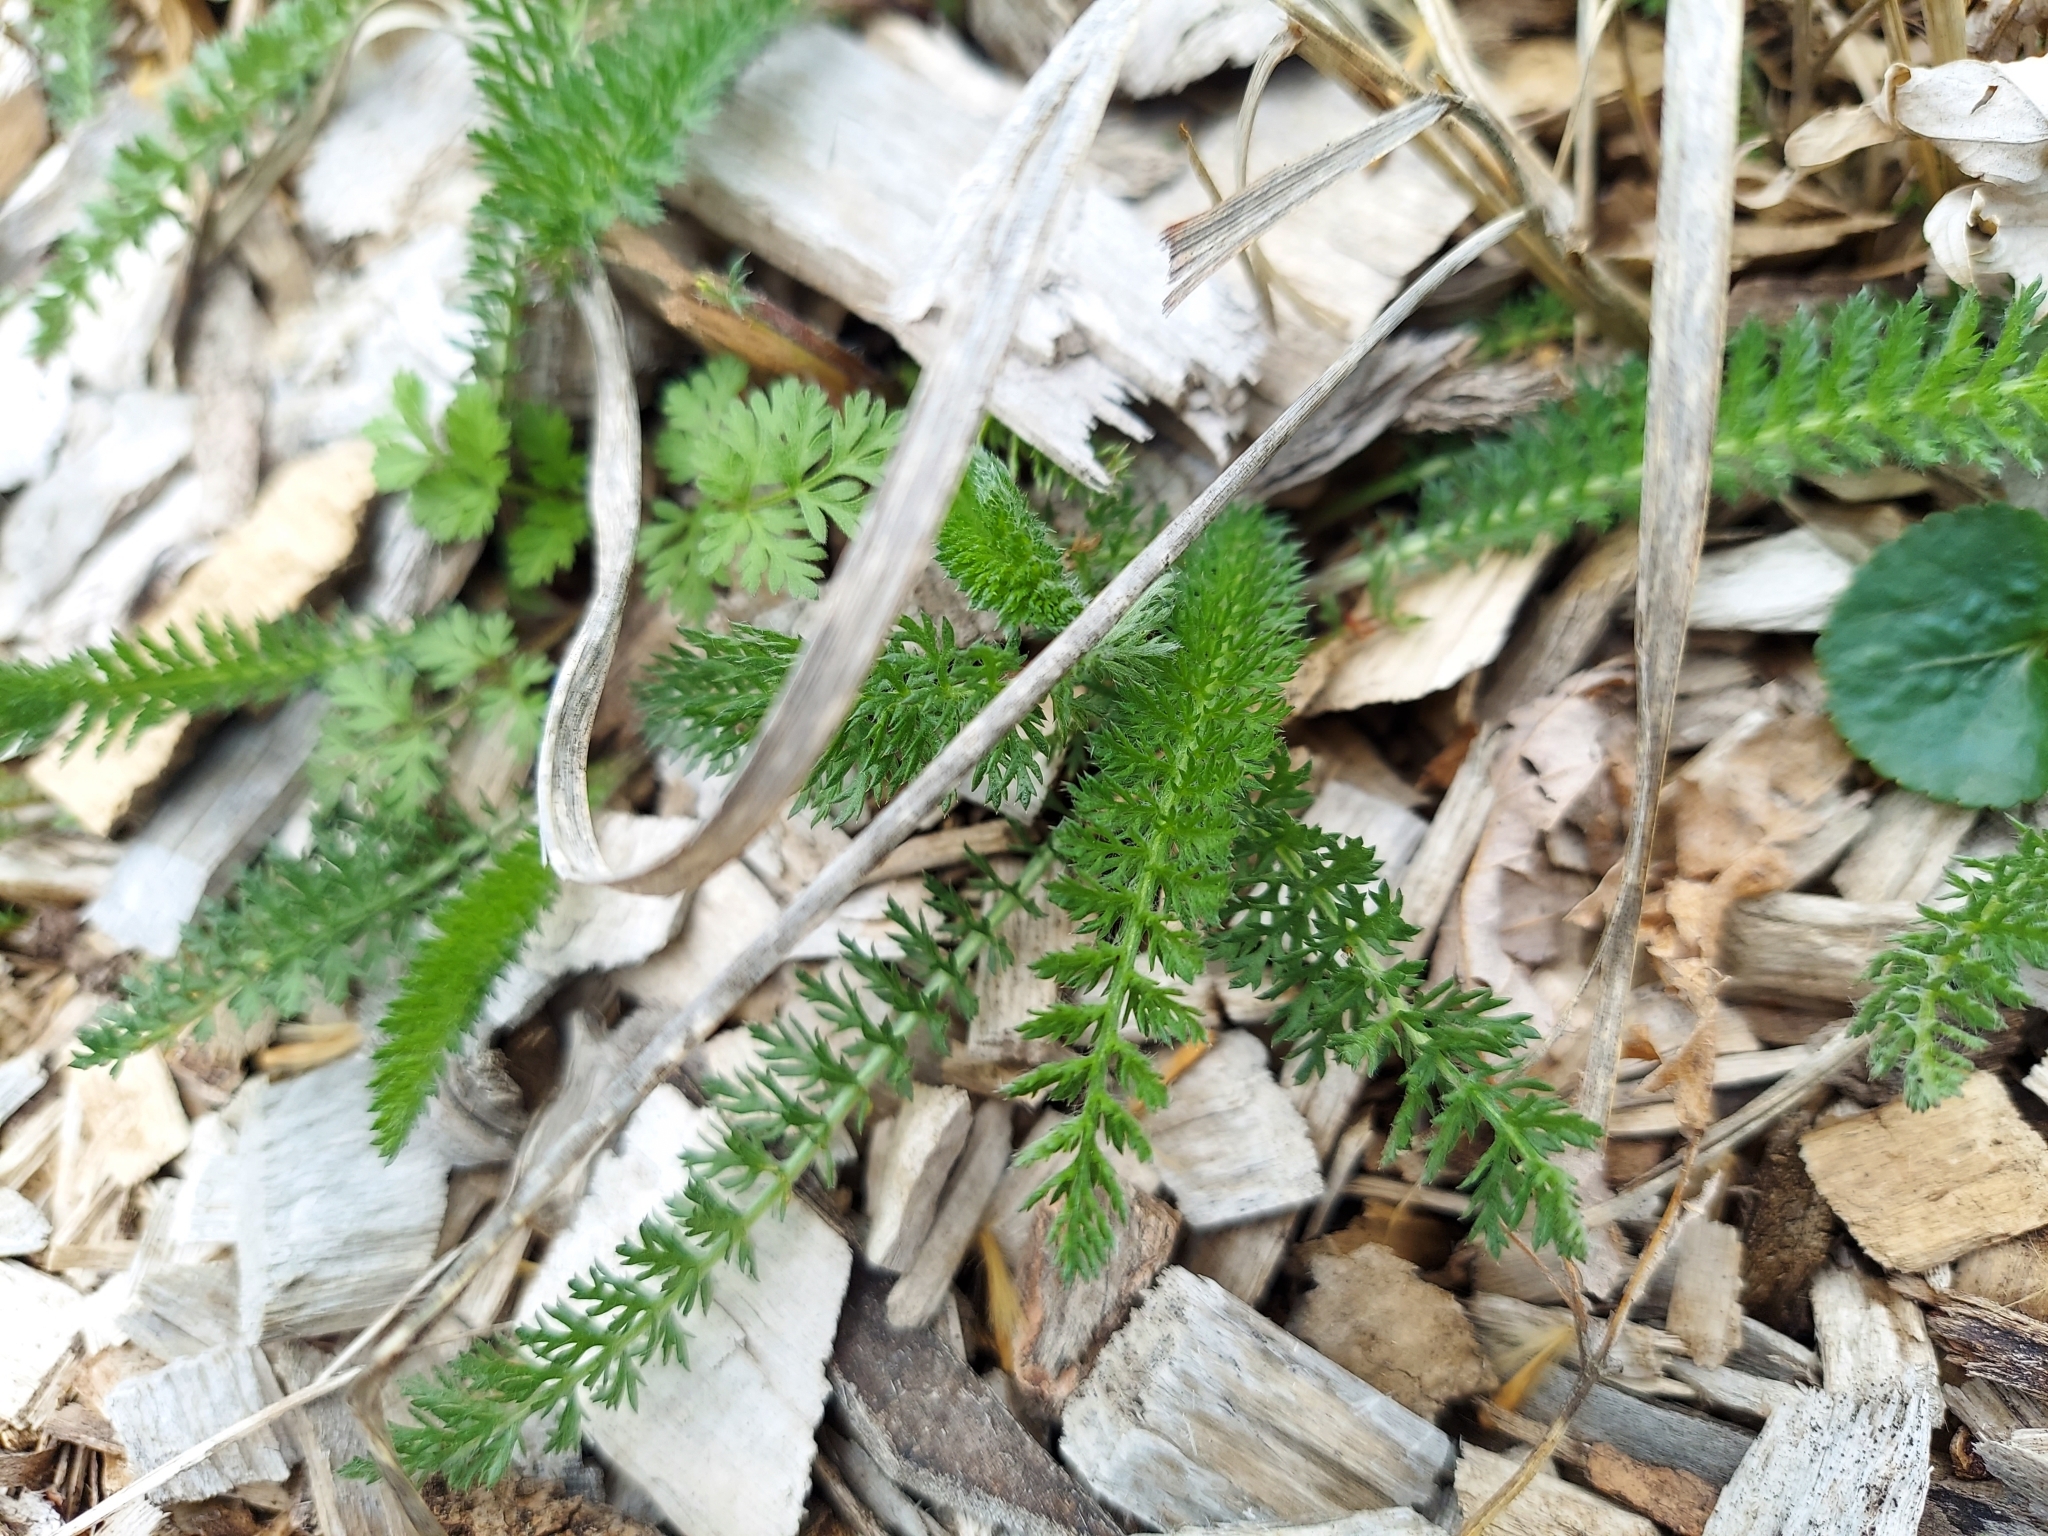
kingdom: Plantae
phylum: Tracheophyta
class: Magnoliopsida
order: Asterales
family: Asteraceae
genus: Achillea
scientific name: Achillea millefolium
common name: Yarrow
